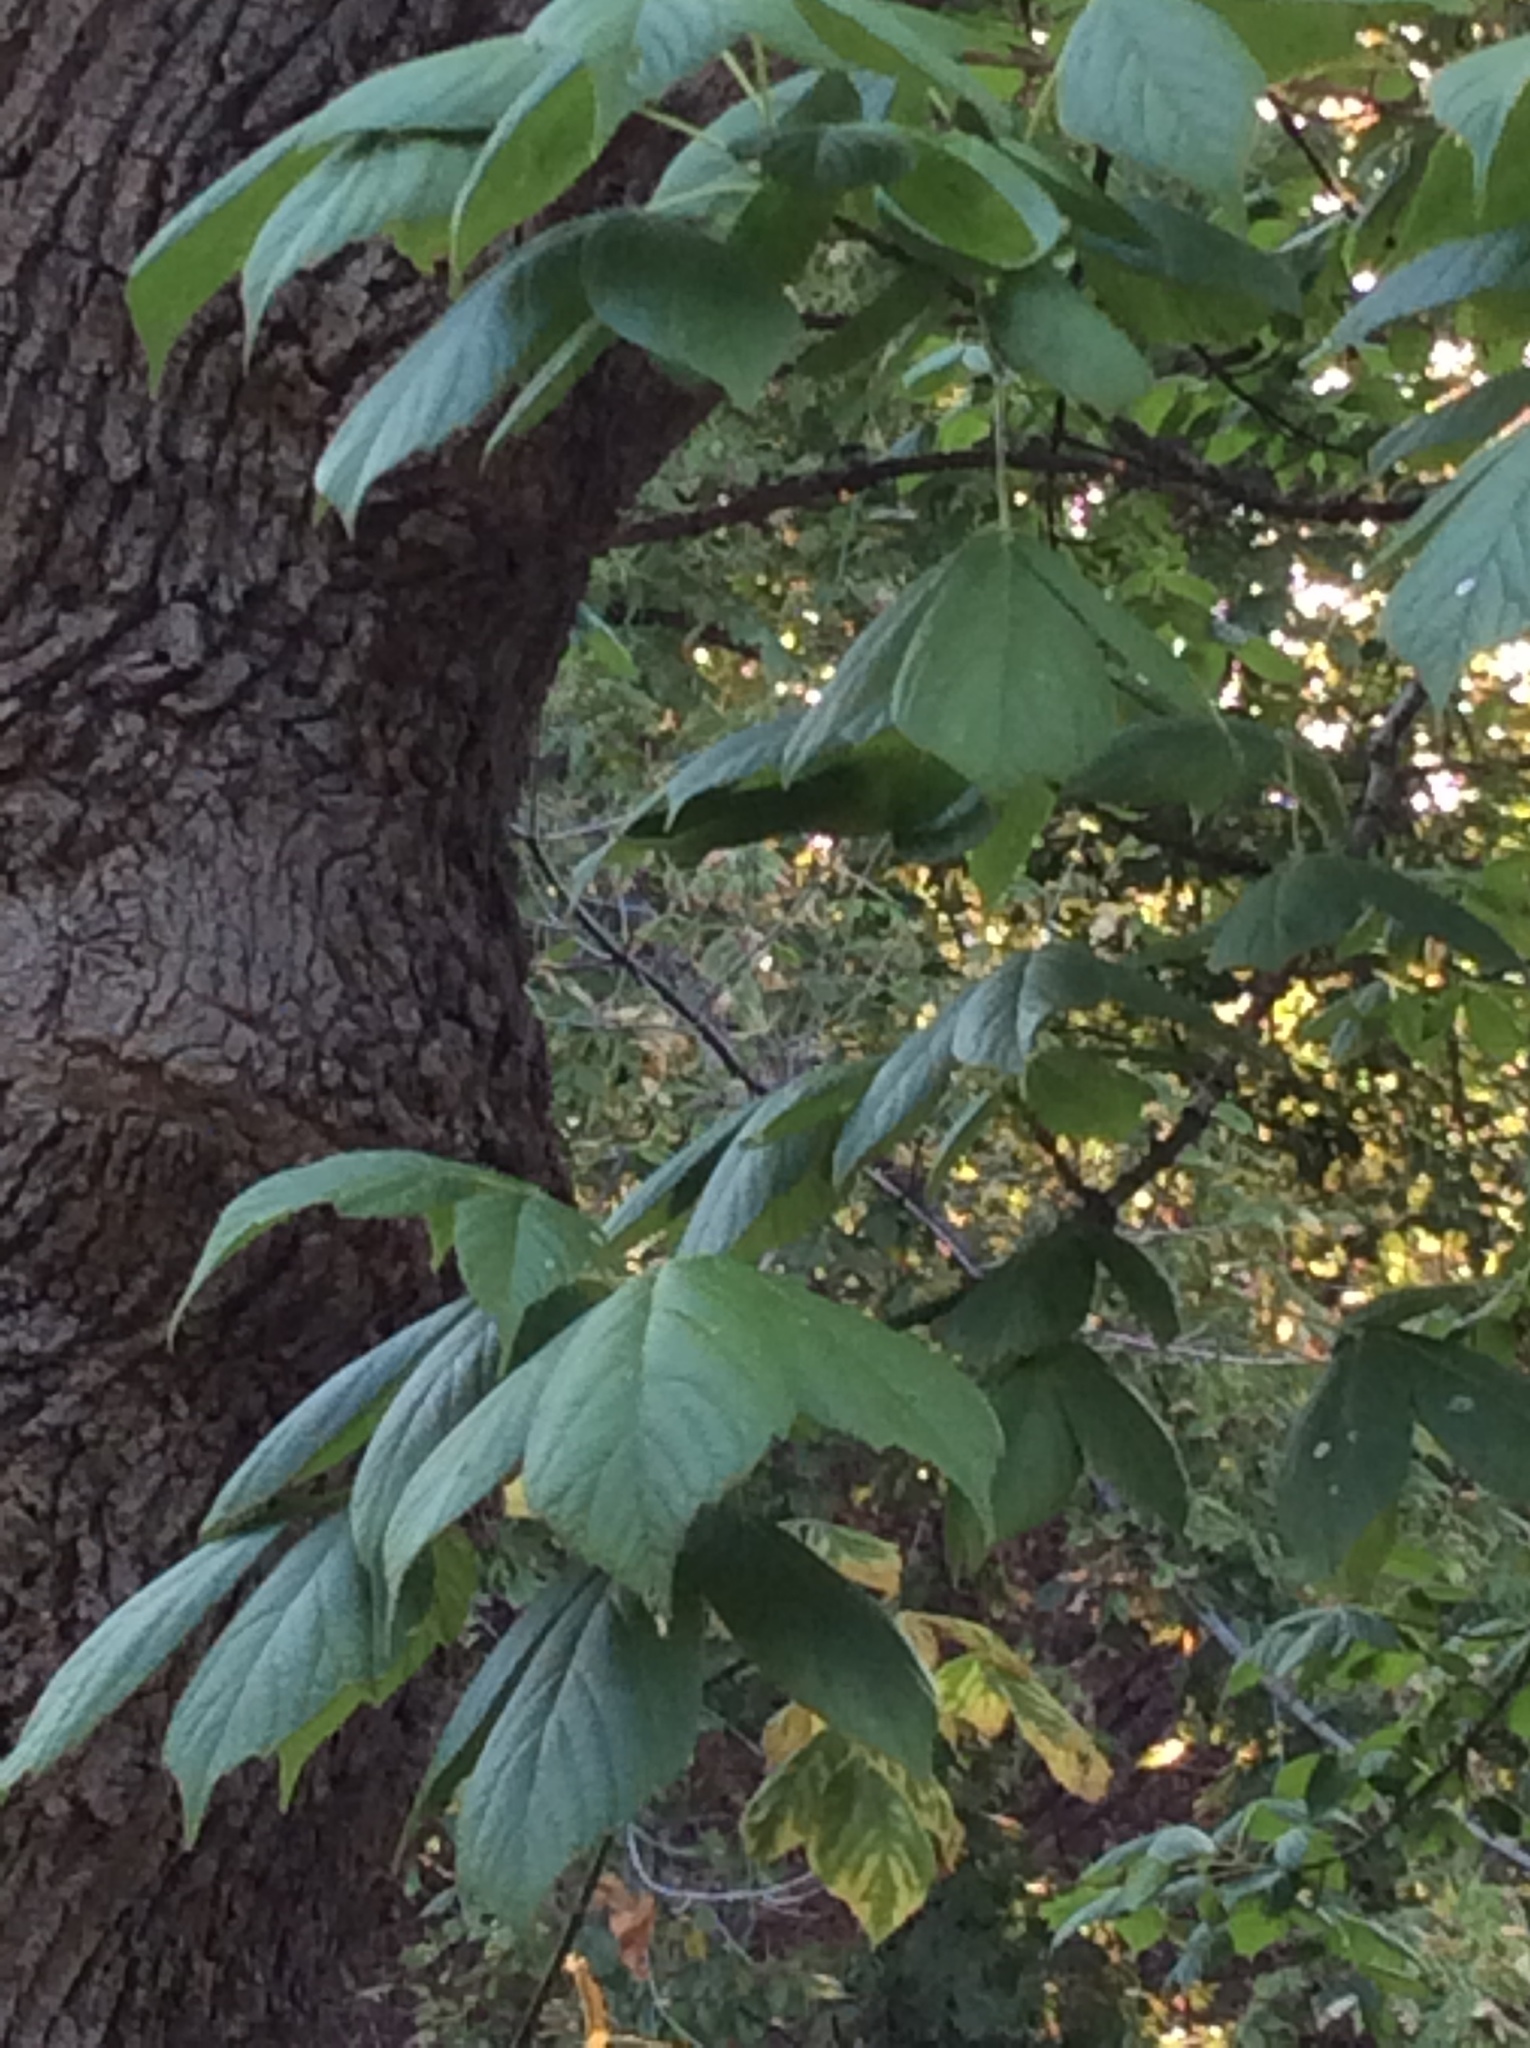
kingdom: Plantae
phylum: Tracheophyta
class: Magnoliopsida
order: Sapindales
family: Sapindaceae
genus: Acer
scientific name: Acer negundo
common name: Ashleaf maple
